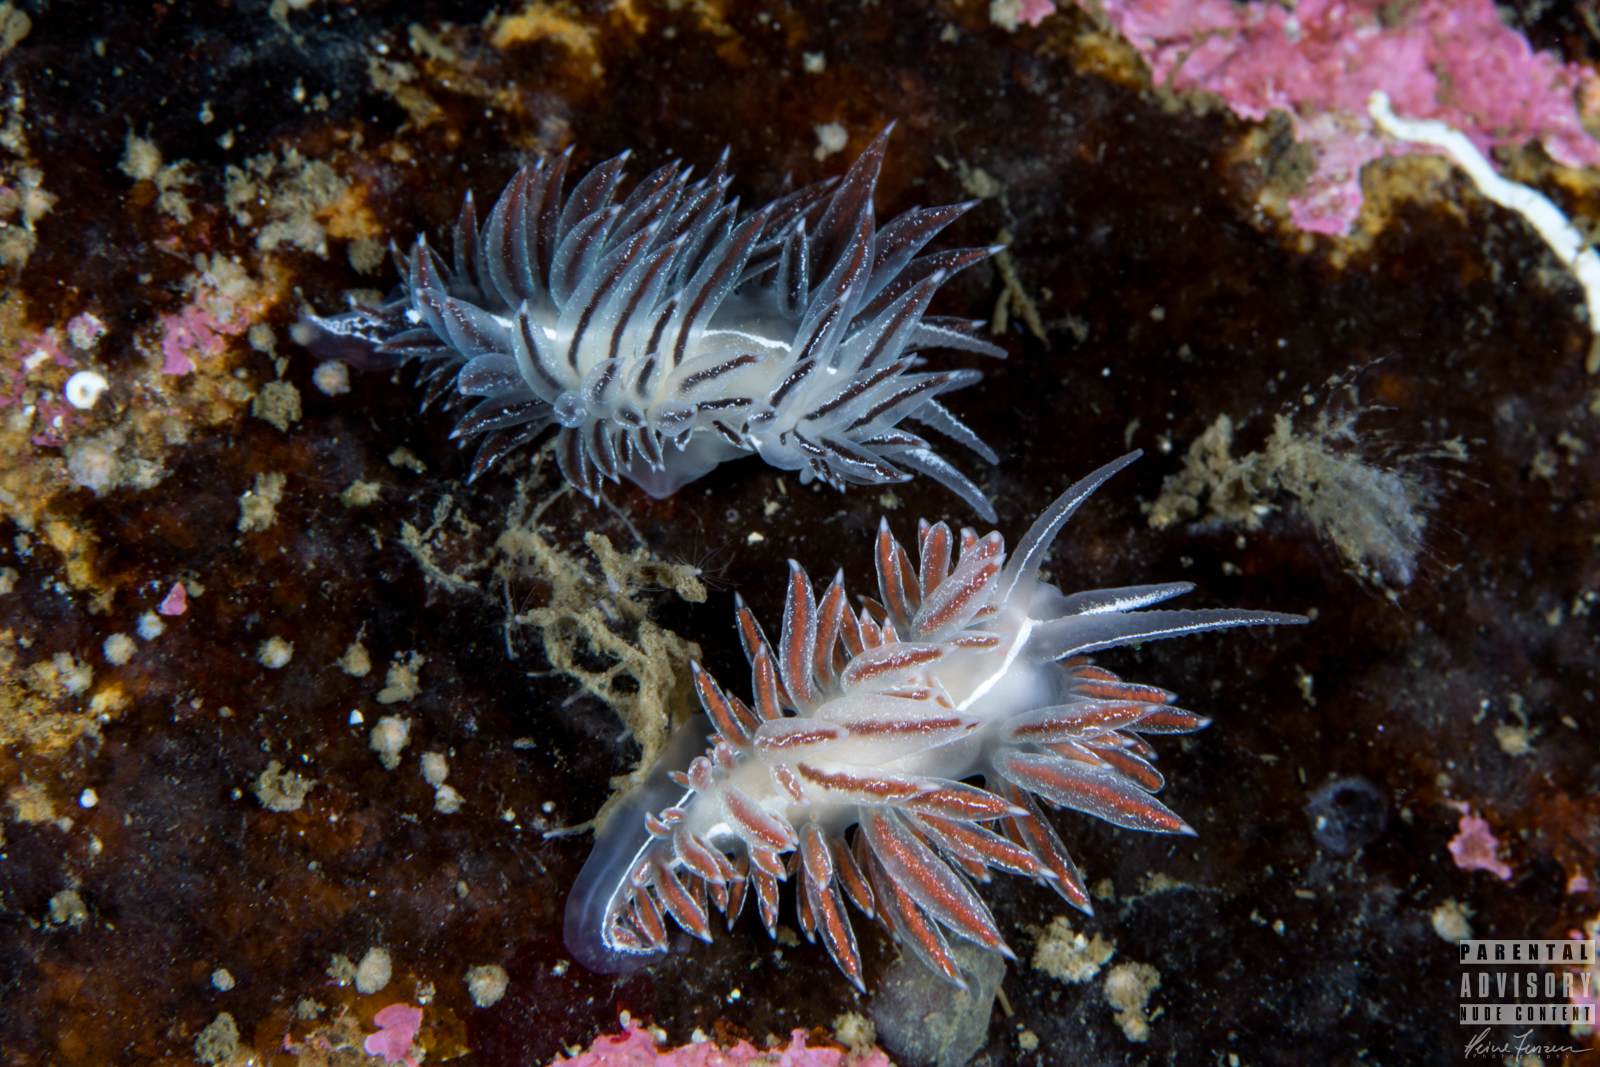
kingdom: Animalia
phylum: Mollusca
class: Gastropoda
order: Nudibranchia
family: Coryphellidae
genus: Coryphella
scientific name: Coryphella chriskaugei
